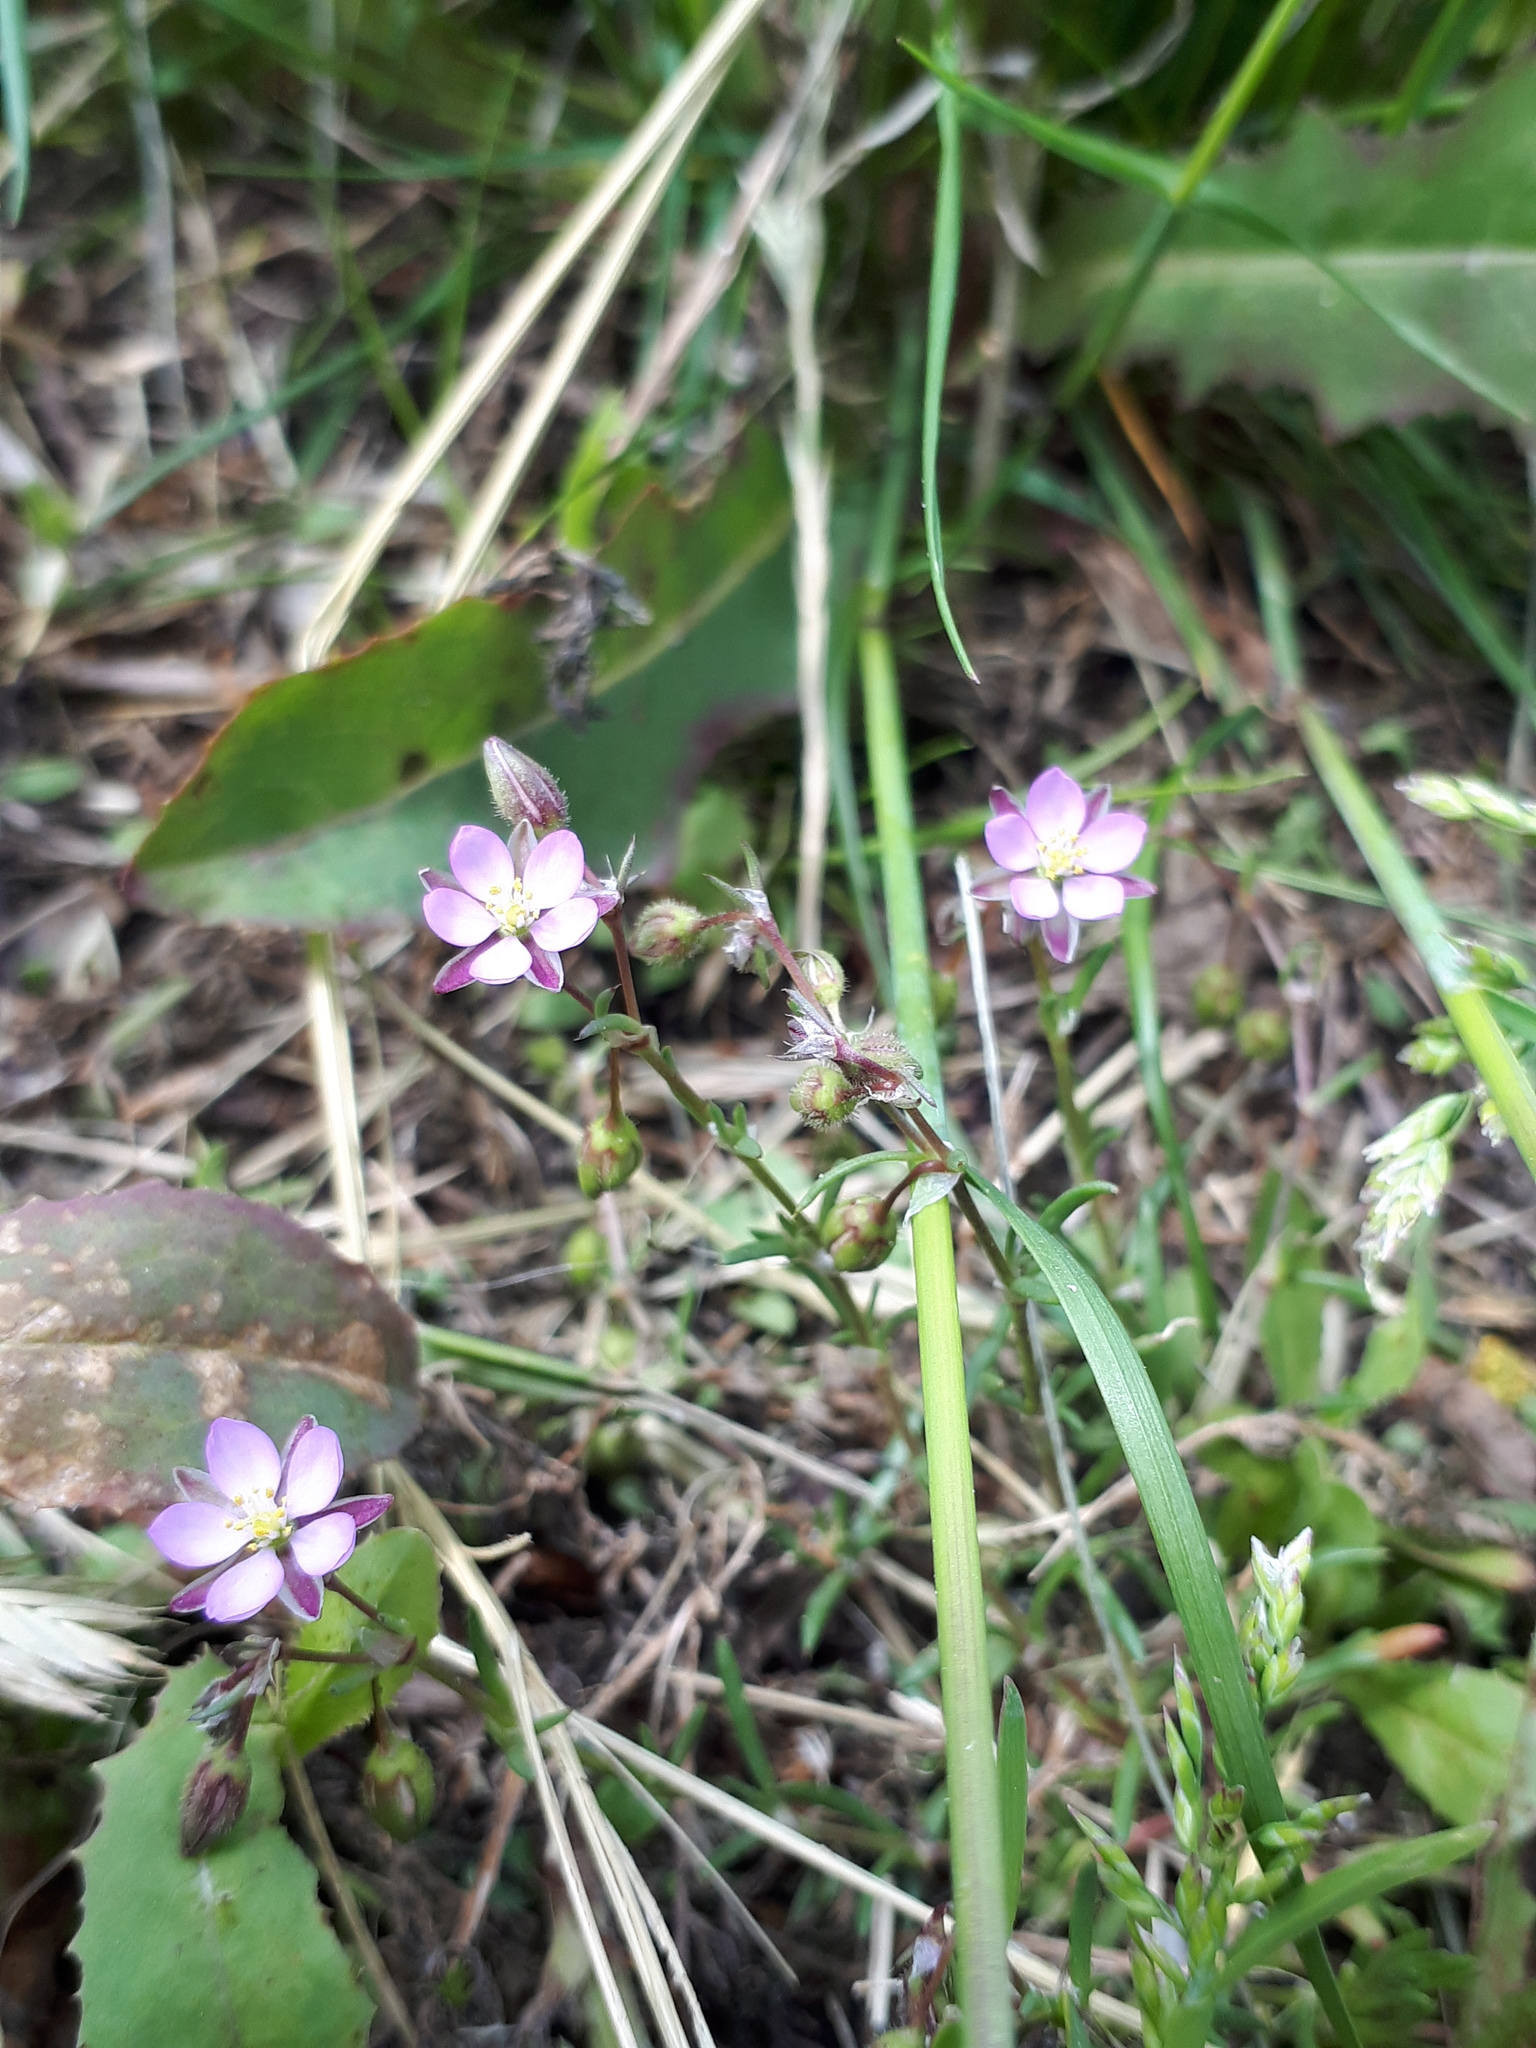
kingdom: Plantae
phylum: Tracheophyta
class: Magnoliopsida
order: Caryophyllales
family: Caryophyllaceae
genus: Spergularia
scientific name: Spergularia rubra
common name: Red sand-spurrey
